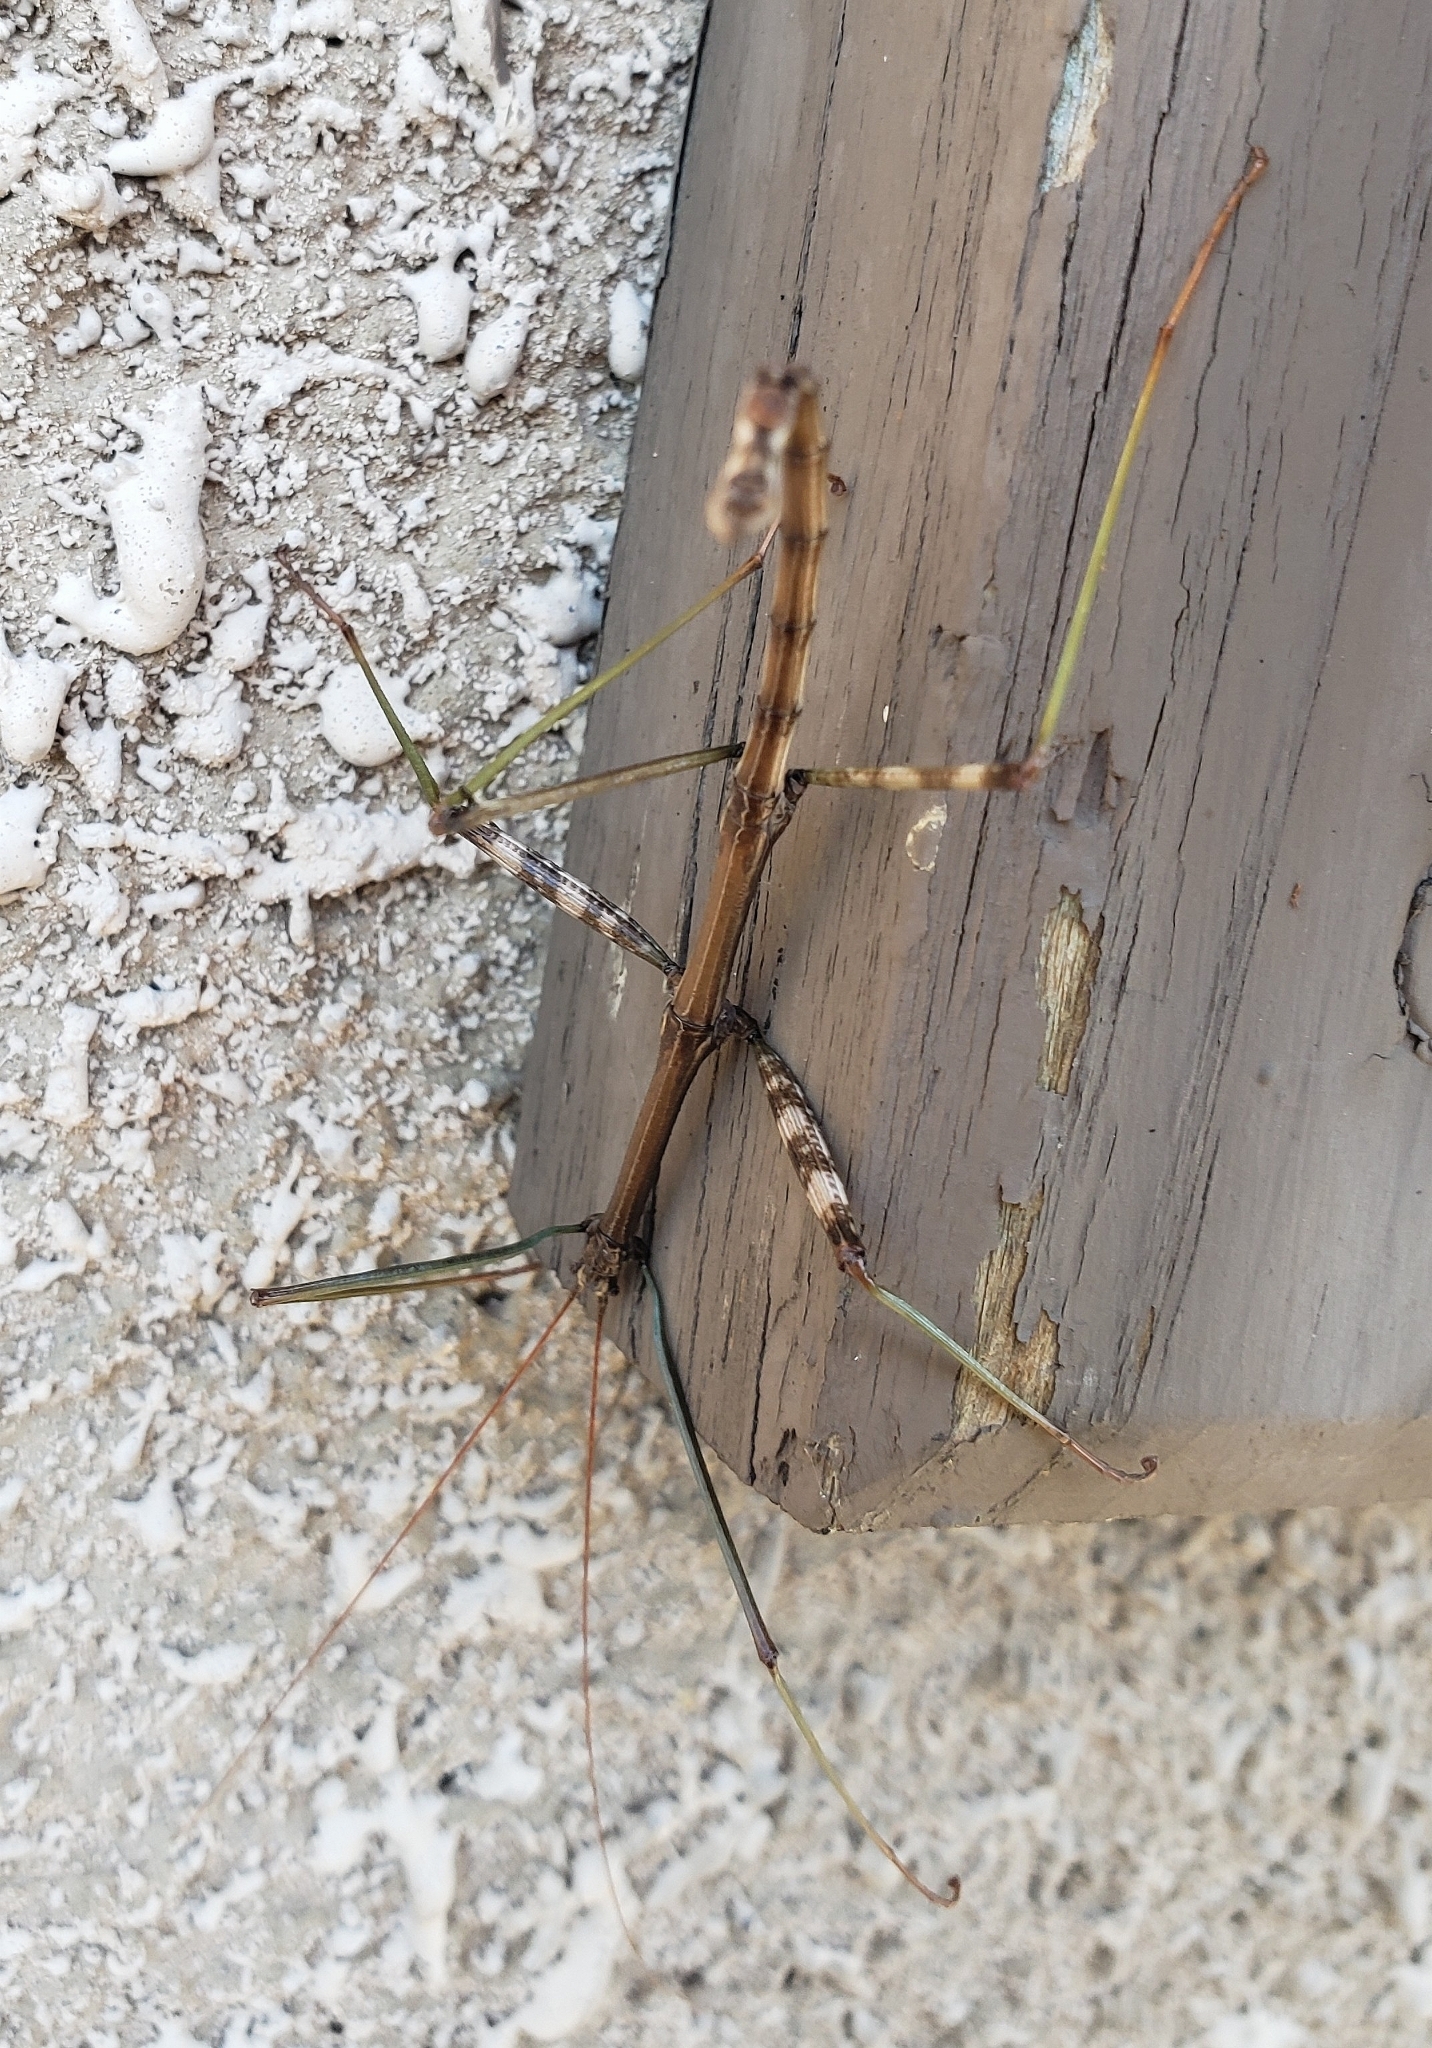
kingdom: Animalia
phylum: Arthropoda
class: Insecta
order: Phasmida
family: Diapheromeridae
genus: Diapheromera
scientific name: Diapheromera femorata
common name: Common american walkingstick
